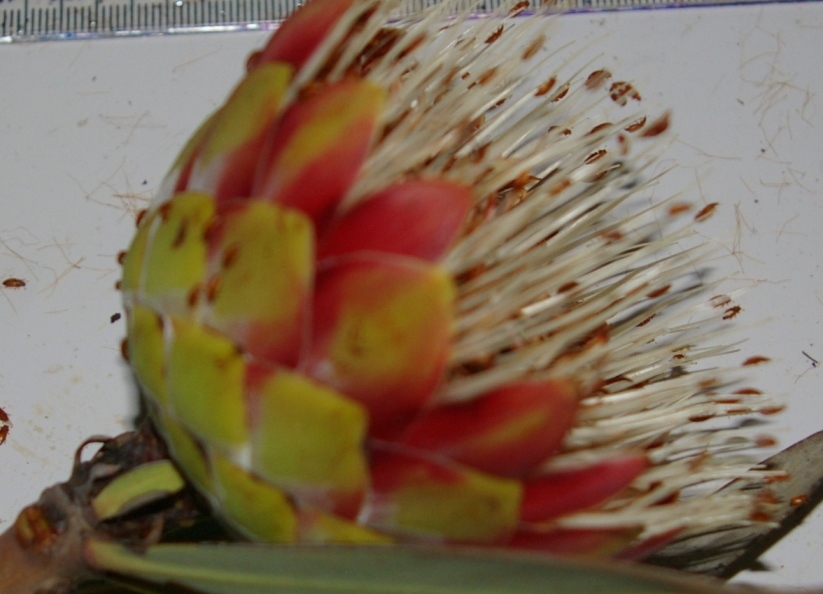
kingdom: Plantae
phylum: Tracheophyta
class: Magnoliopsida
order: Proteales
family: Proteaceae
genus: Protea
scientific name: Protea caffra
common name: Common sugarbush
